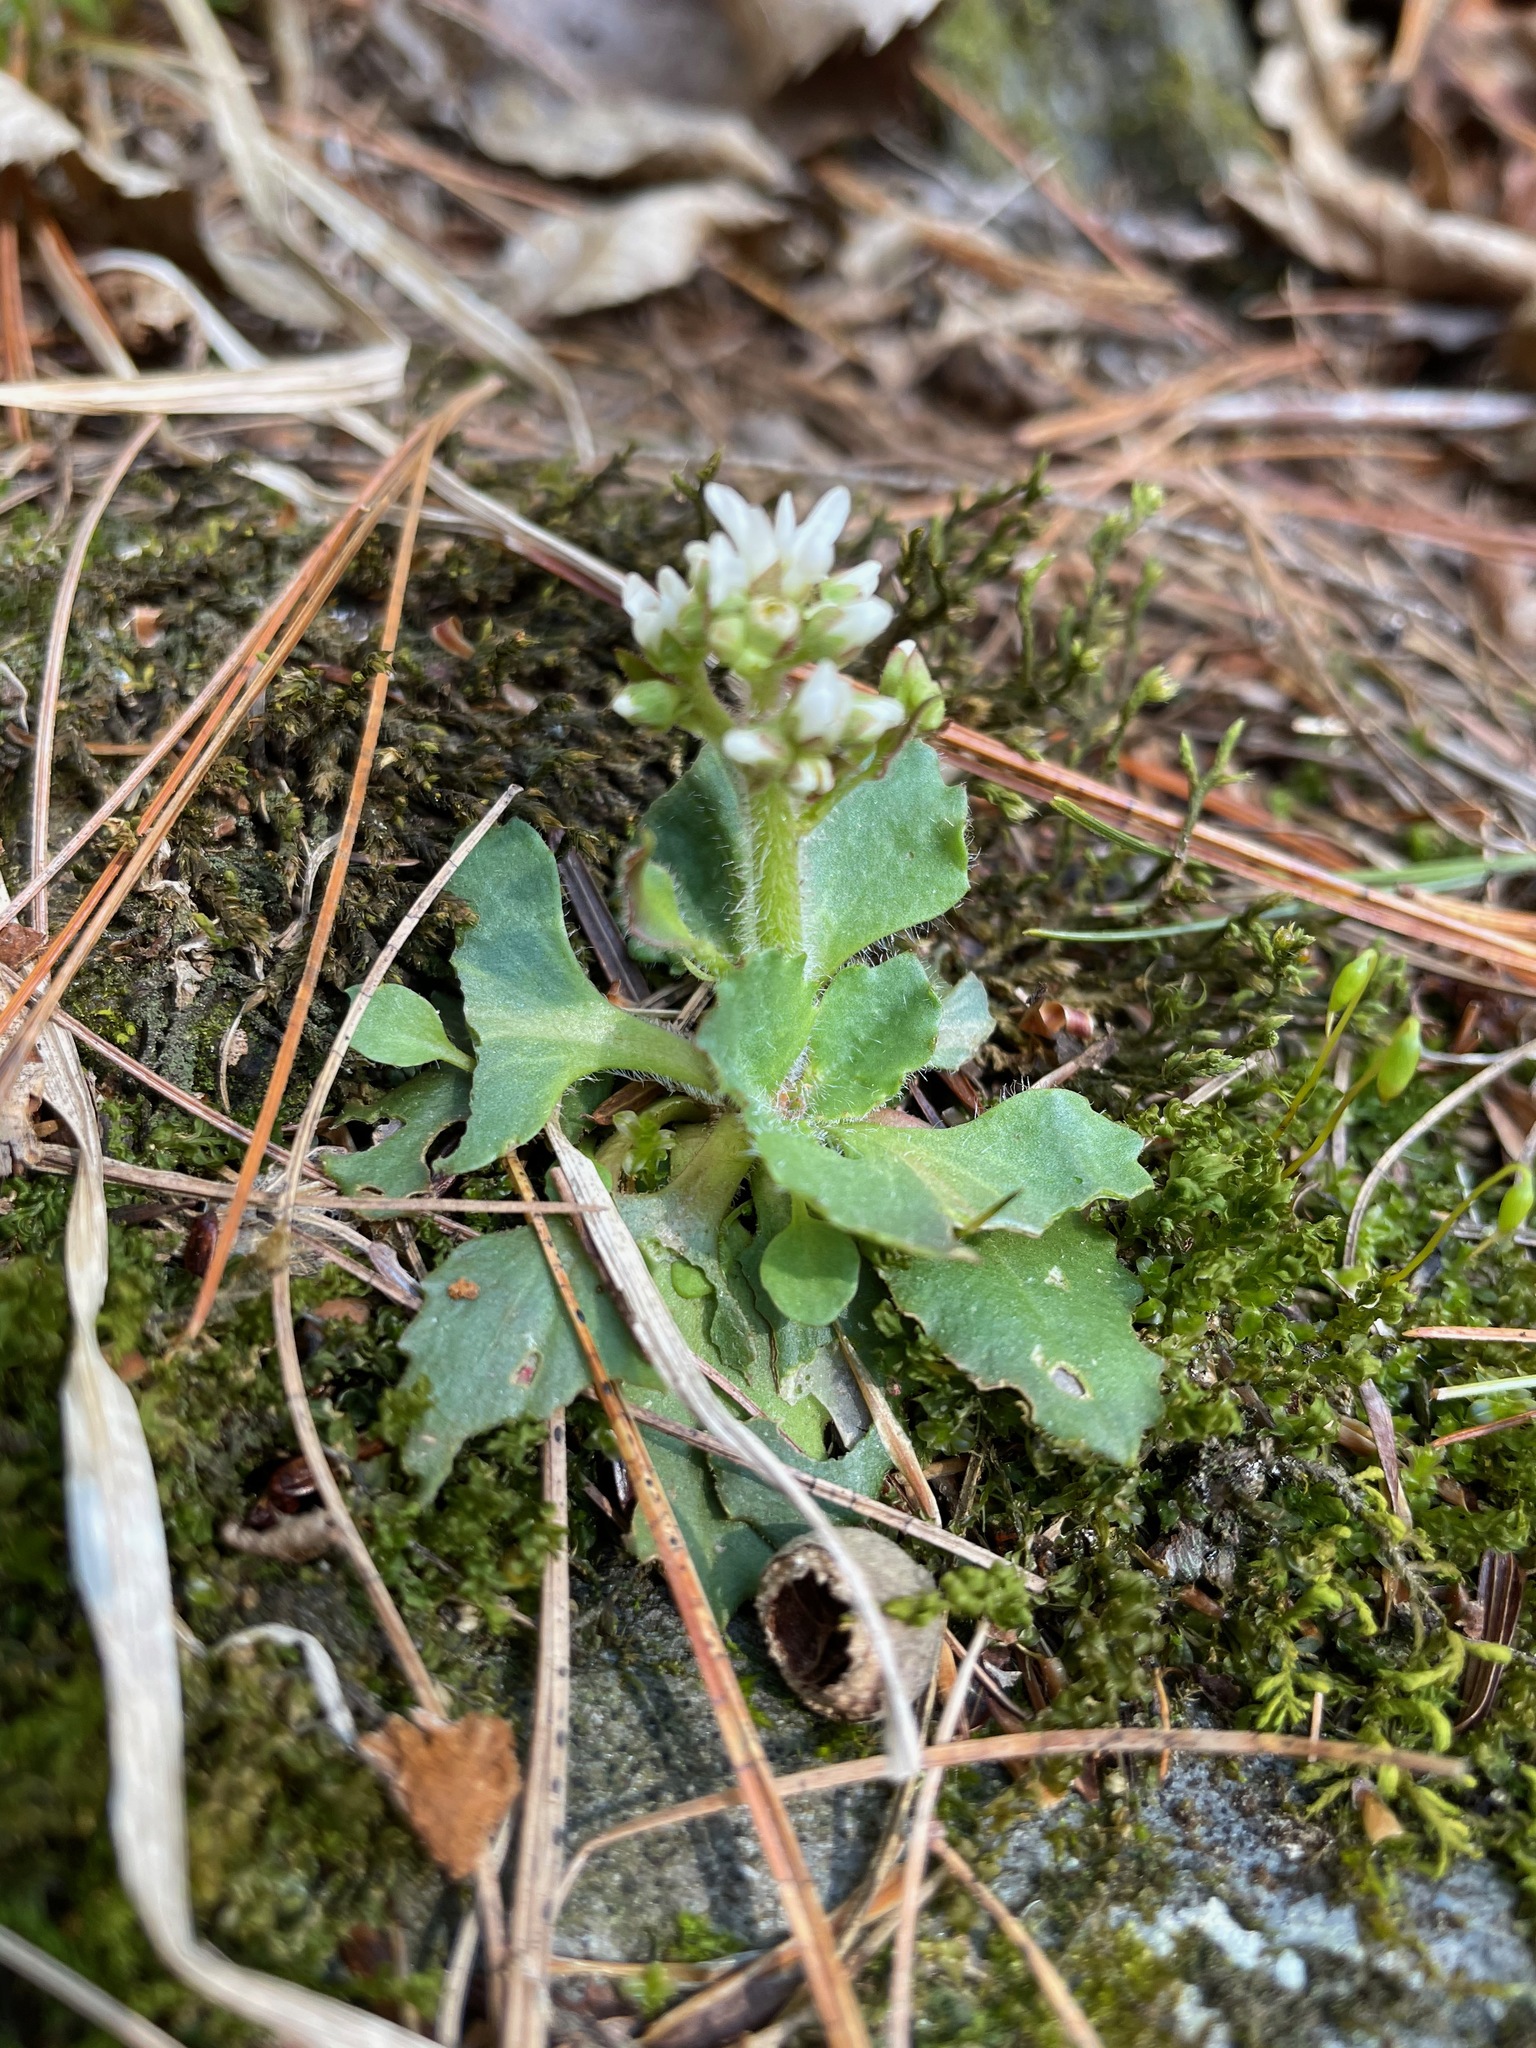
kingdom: Plantae
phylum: Tracheophyta
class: Magnoliopsida
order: Saxifragales
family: Saxifragaceae
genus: Micranthes
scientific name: Micranthes virginiensis
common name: Early saxifrage
